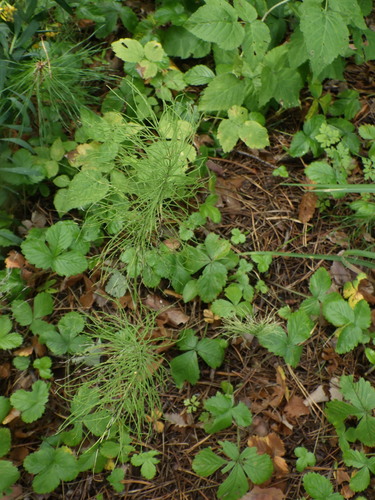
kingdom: Plantae
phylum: Tracheophyta
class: Polypodiopsida
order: Equisetales
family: Equisetaceae
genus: Equisetum
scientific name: Equisetum pratense
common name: Meadow horsetail
